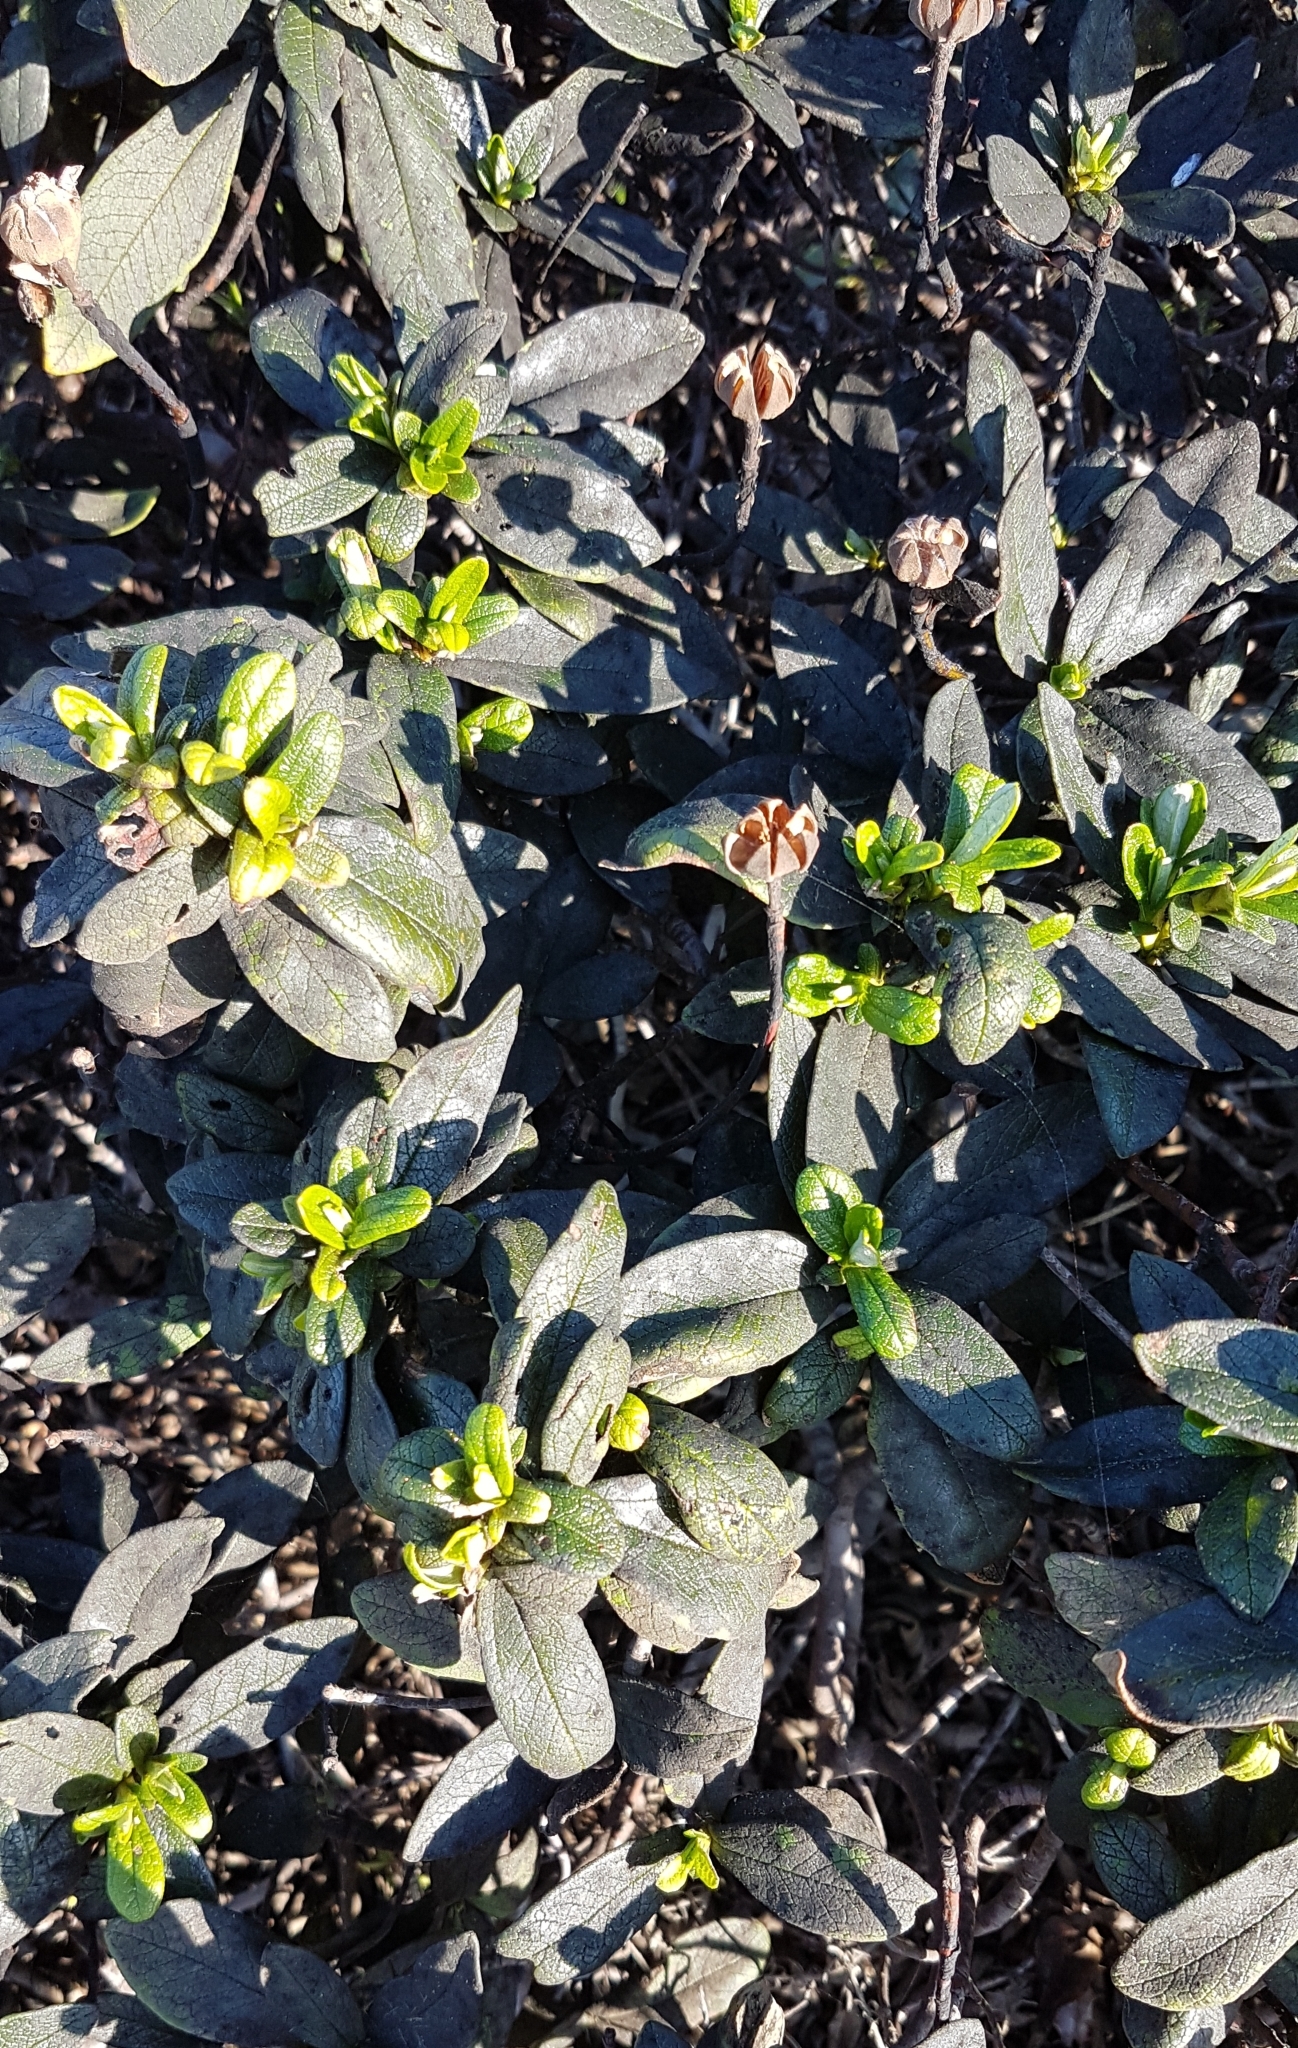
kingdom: Plantae
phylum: Tracheophyta
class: Magnoliopsida
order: Malvales
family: Cistaceae
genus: Cistus
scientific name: Cistus ladanifer
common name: Common gum cistus
